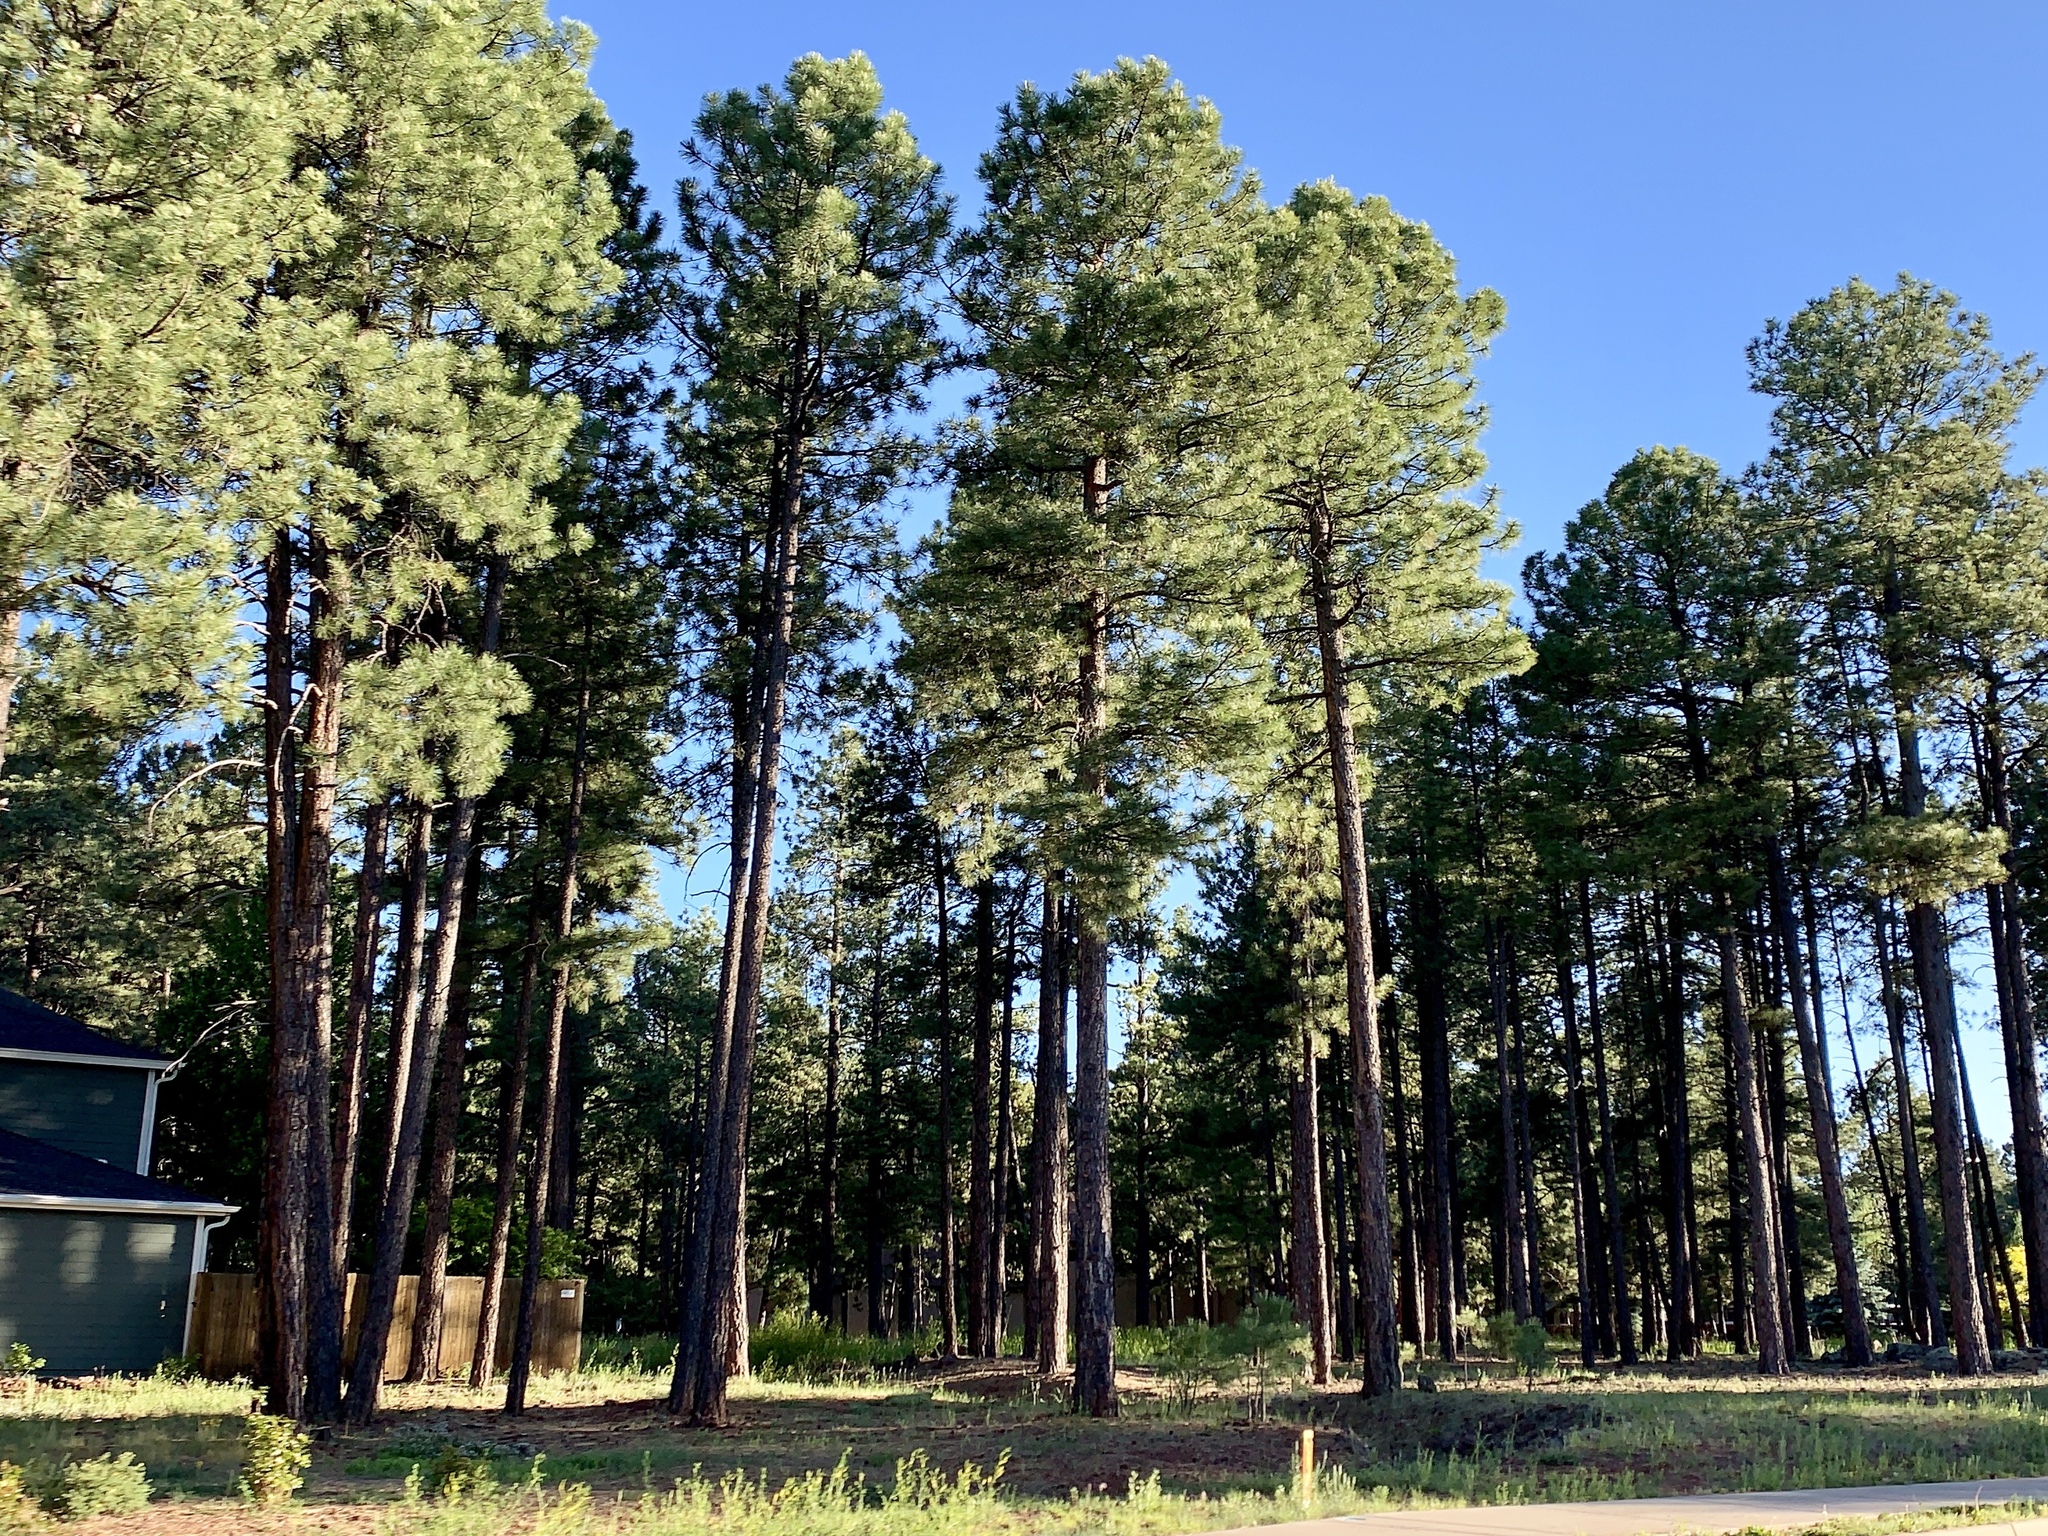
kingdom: Plantae
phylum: Tracheophyta
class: Pinopsida
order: Pinales
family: Pinaceae
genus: Pinus
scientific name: Pinus ponderosa
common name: Western yellow-pine
